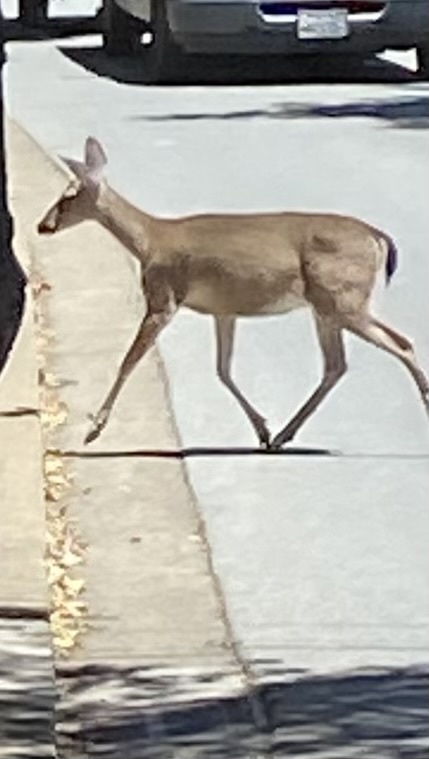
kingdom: Animalia
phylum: Chordata
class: Mammalia
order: Artiodactyla
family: Cervidae
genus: Odocoileus
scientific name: Odocoileus hemionus
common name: Mule deer
